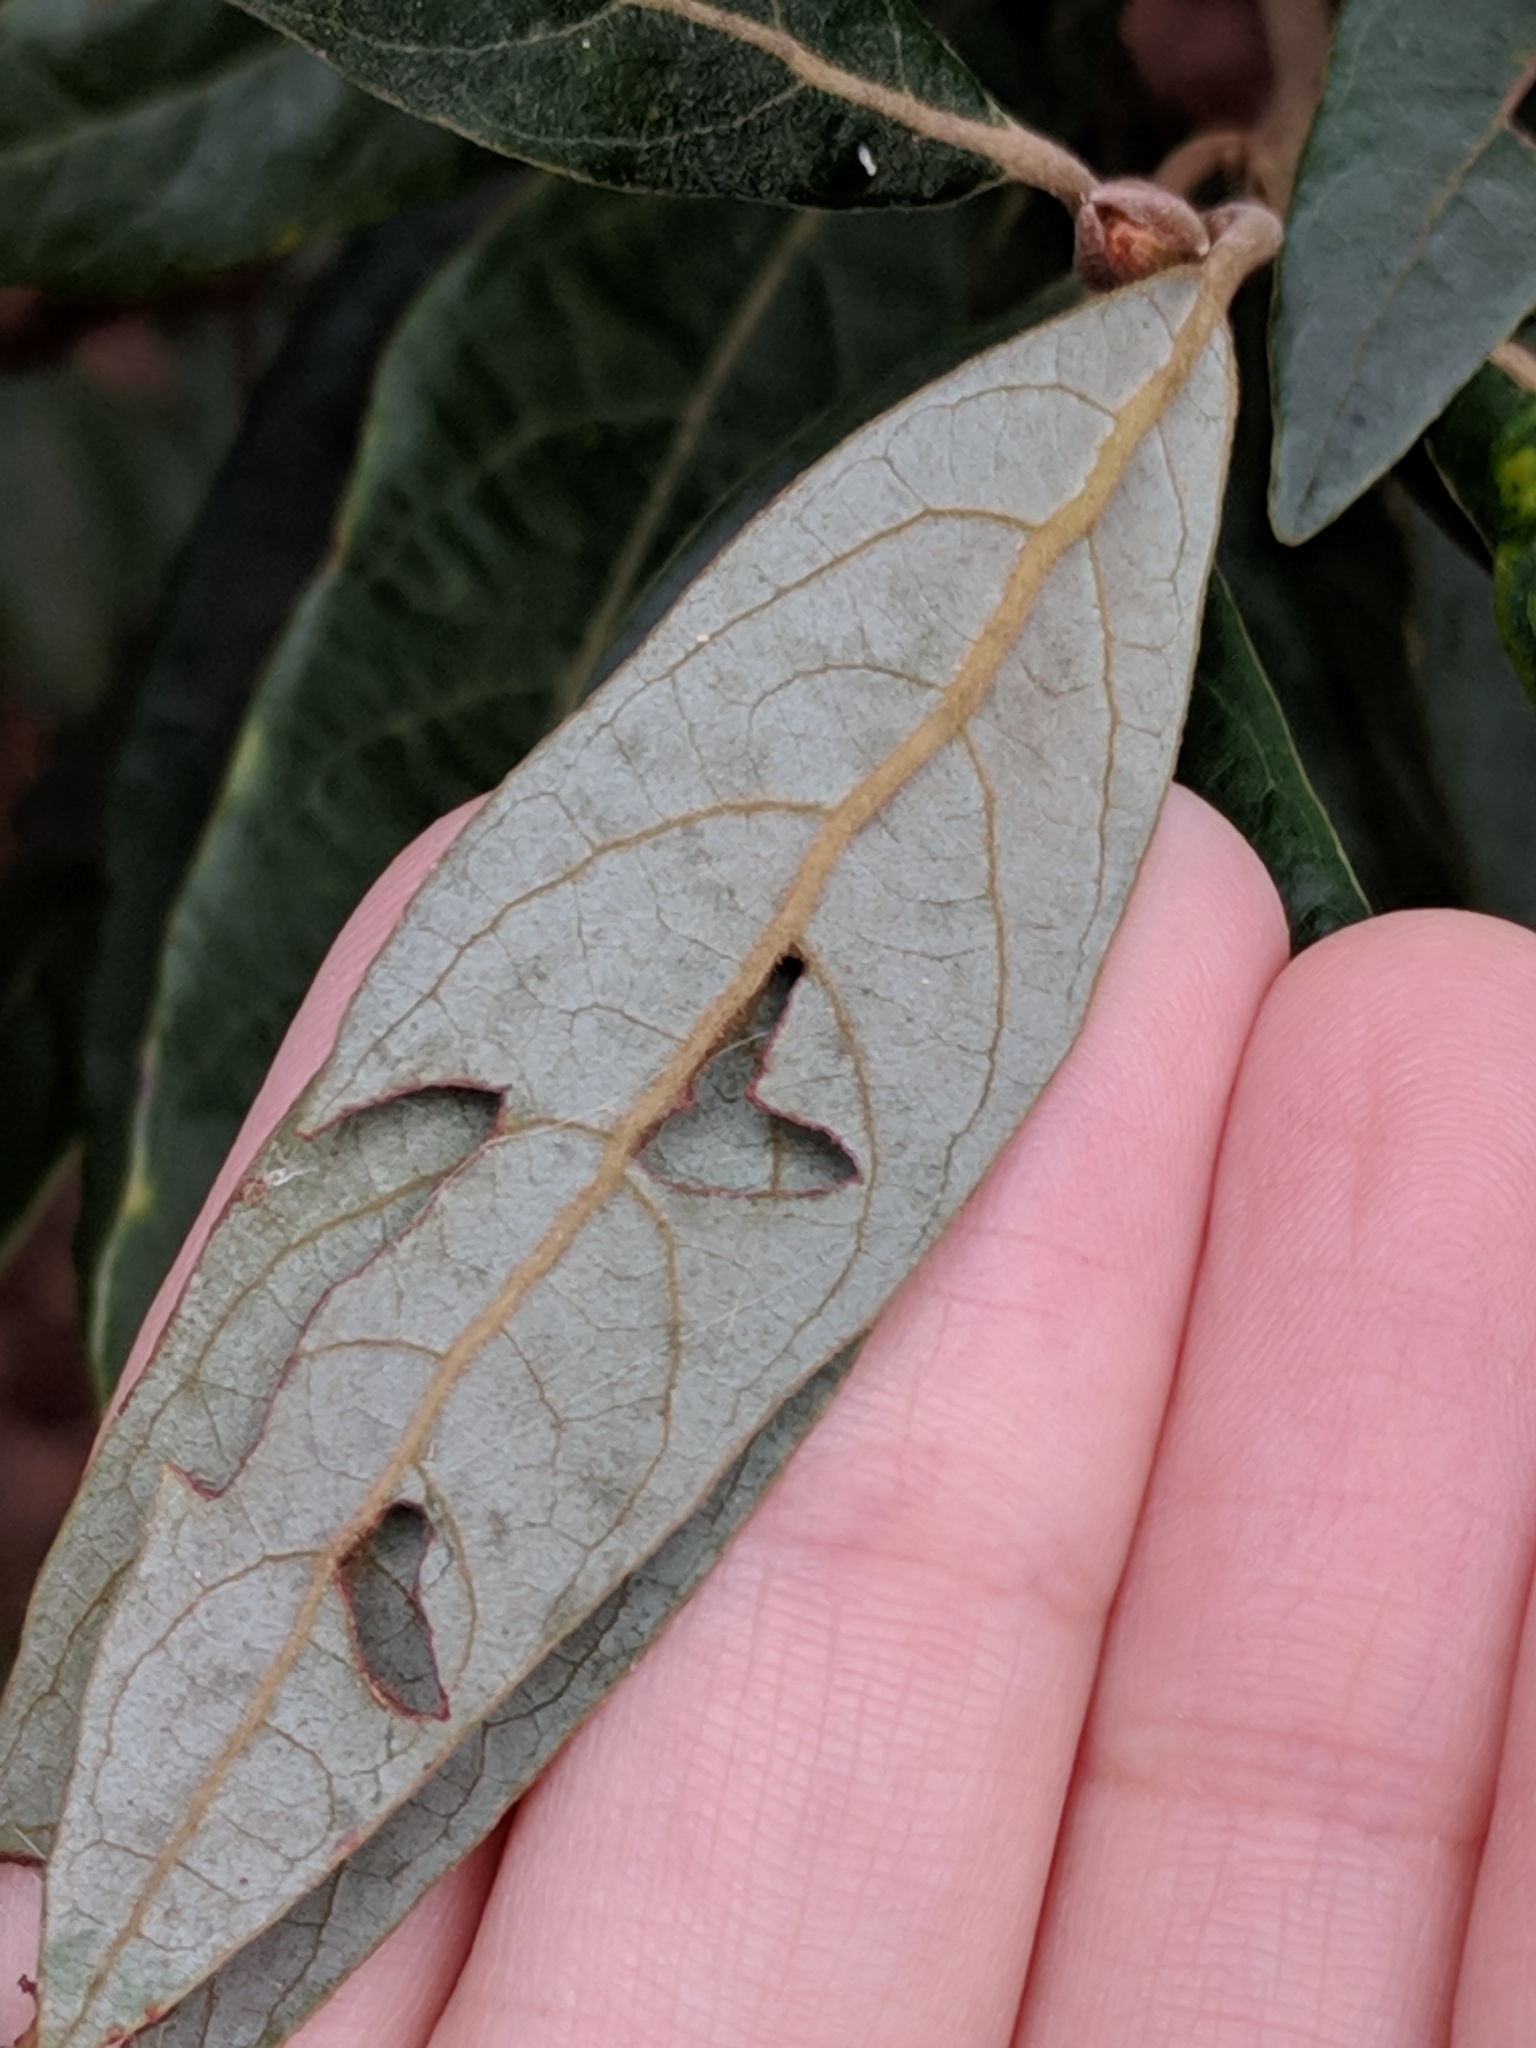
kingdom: Plantae
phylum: Tracheophyta
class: Magnoliopsida
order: Laurales
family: Lauraceae
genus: Persea
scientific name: Persea palustris
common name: Swampbay
